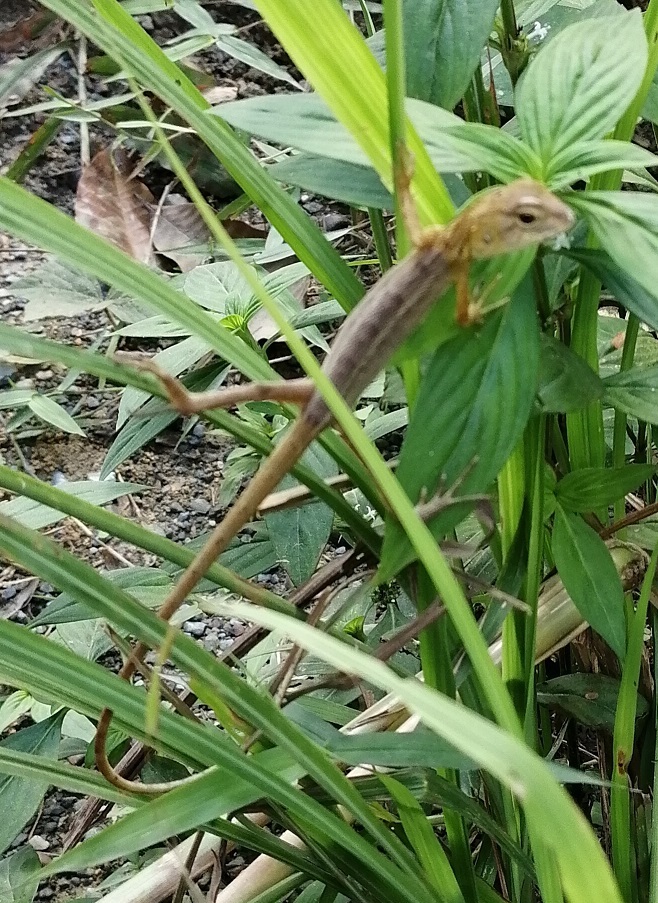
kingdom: Animalia
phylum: Chordata
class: Squamata
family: Agamidae
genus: Calotes
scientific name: Calotes versicolor
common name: Oriental garden lizard
